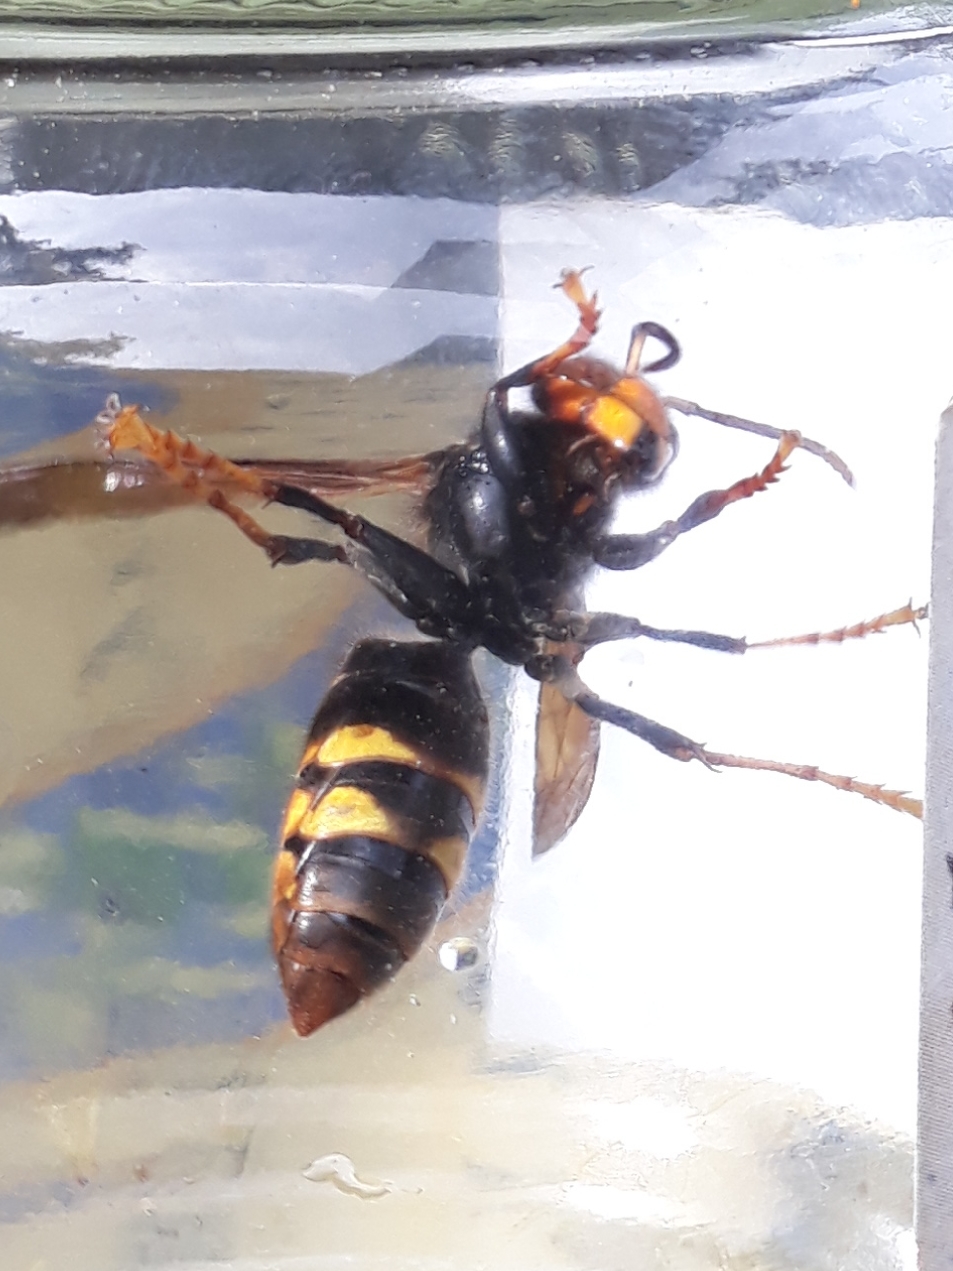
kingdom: Animalia
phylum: Arthropoda
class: Insecta
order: Hymenoptera
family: Vespidae
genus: Vespa
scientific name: Vespa velutina
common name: Asian hornet
